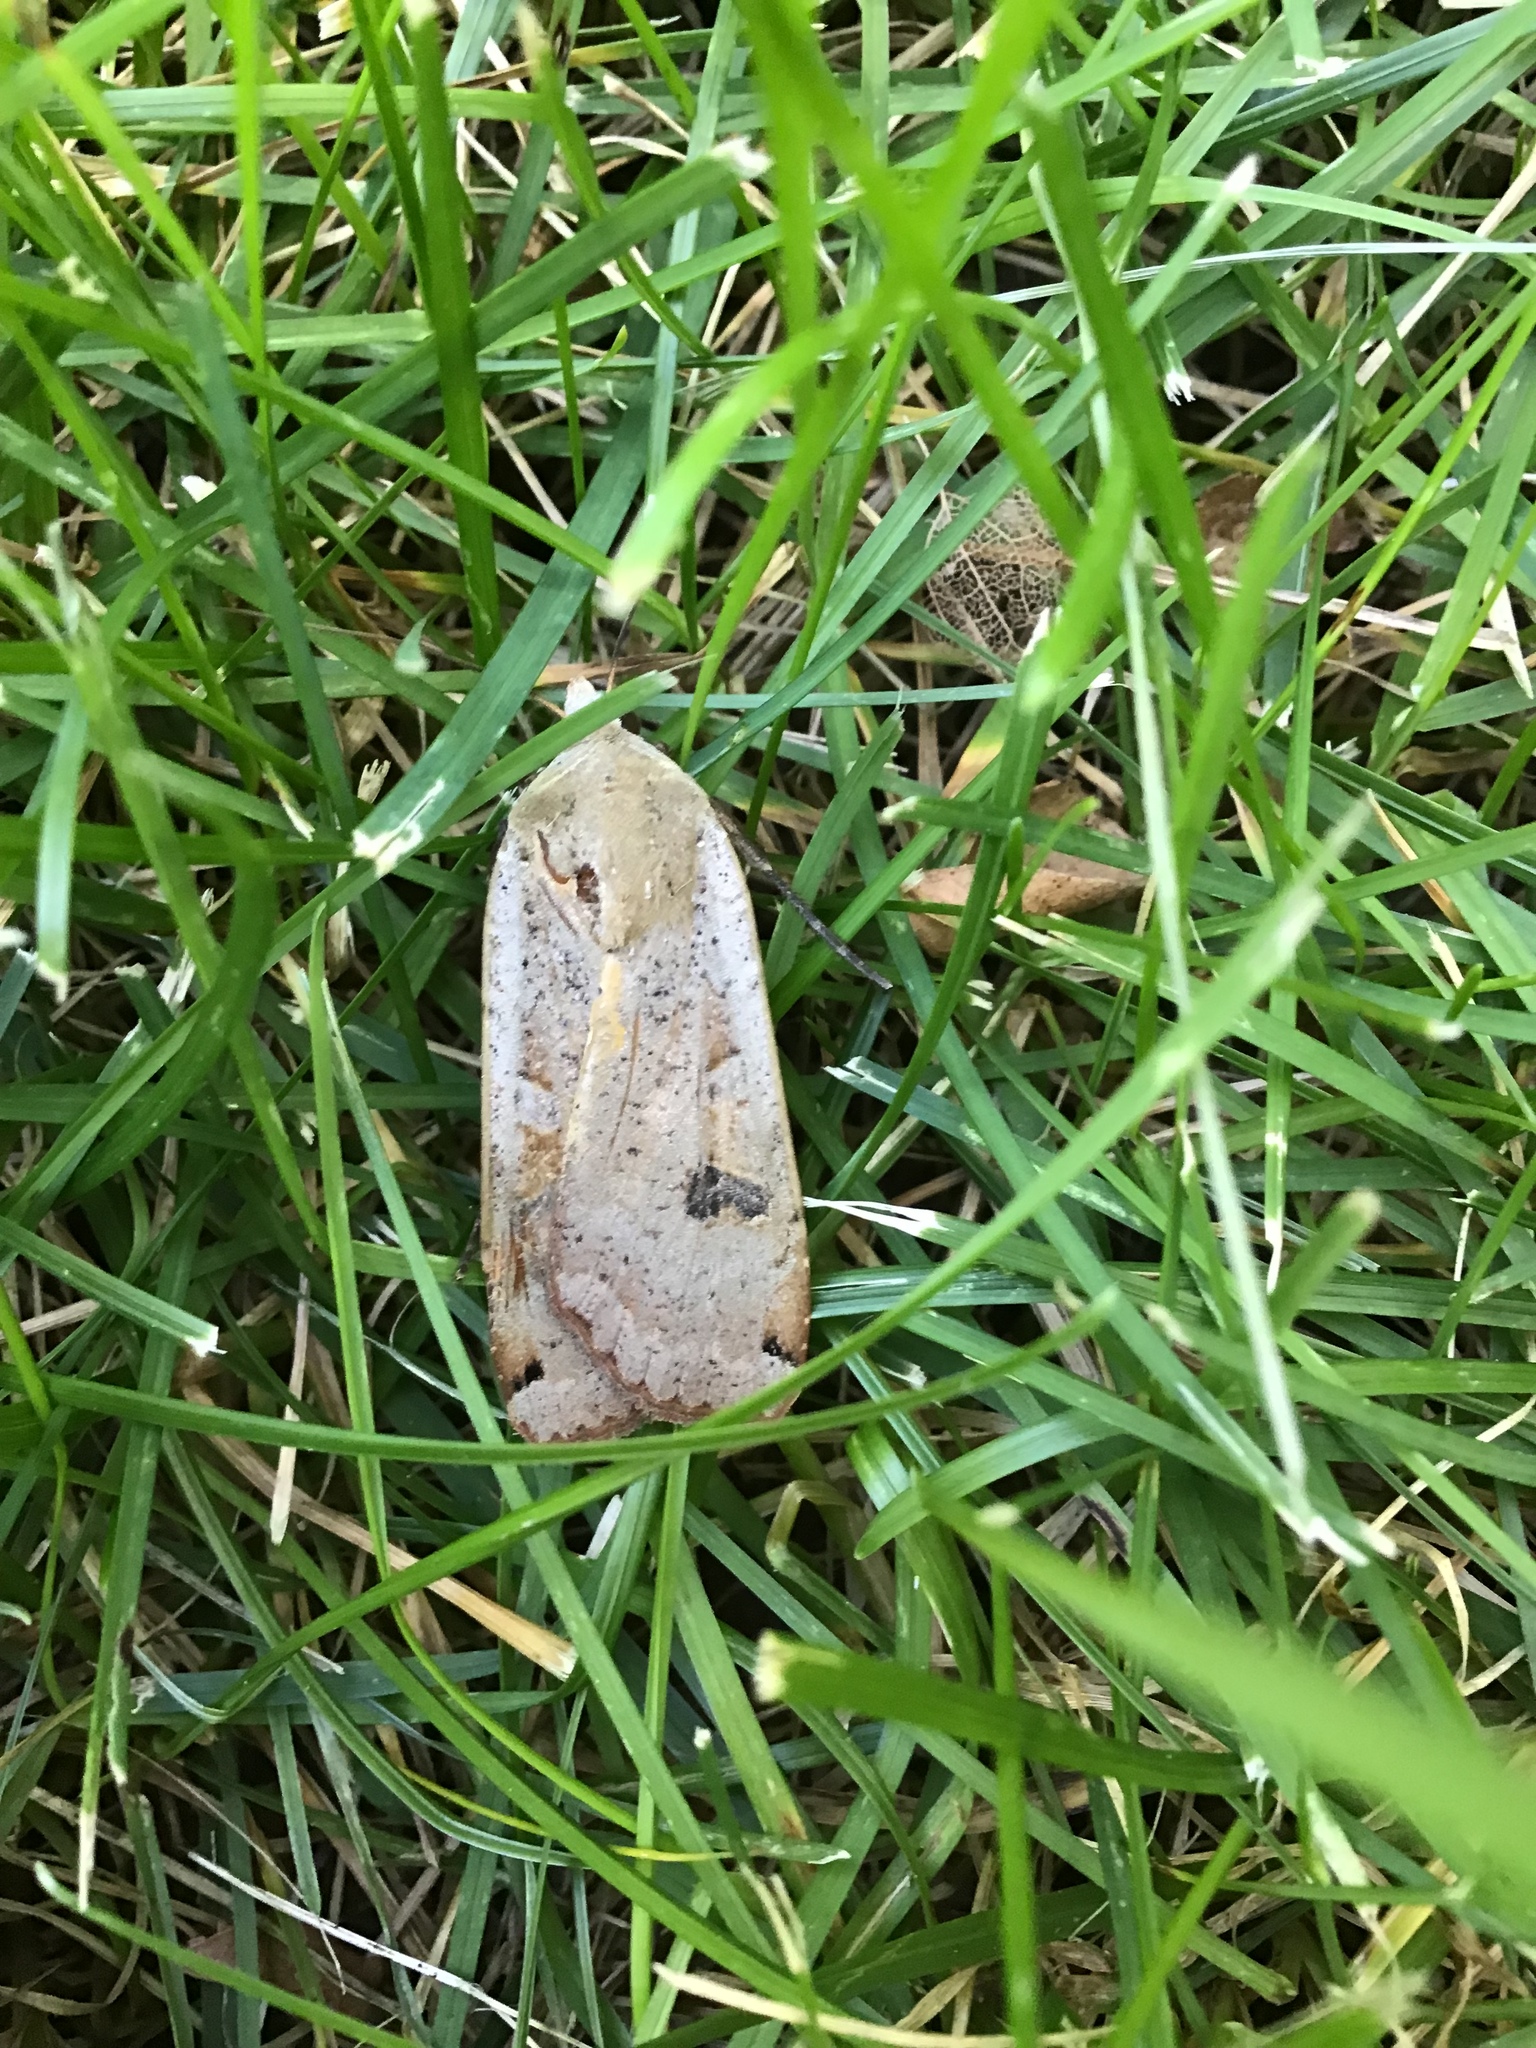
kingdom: Animalia
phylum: Arthropoda
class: Insecta
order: Lepidoptera
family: Noctuidae
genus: Noctua
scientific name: Noctua pronuba
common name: Large yellow underwing
